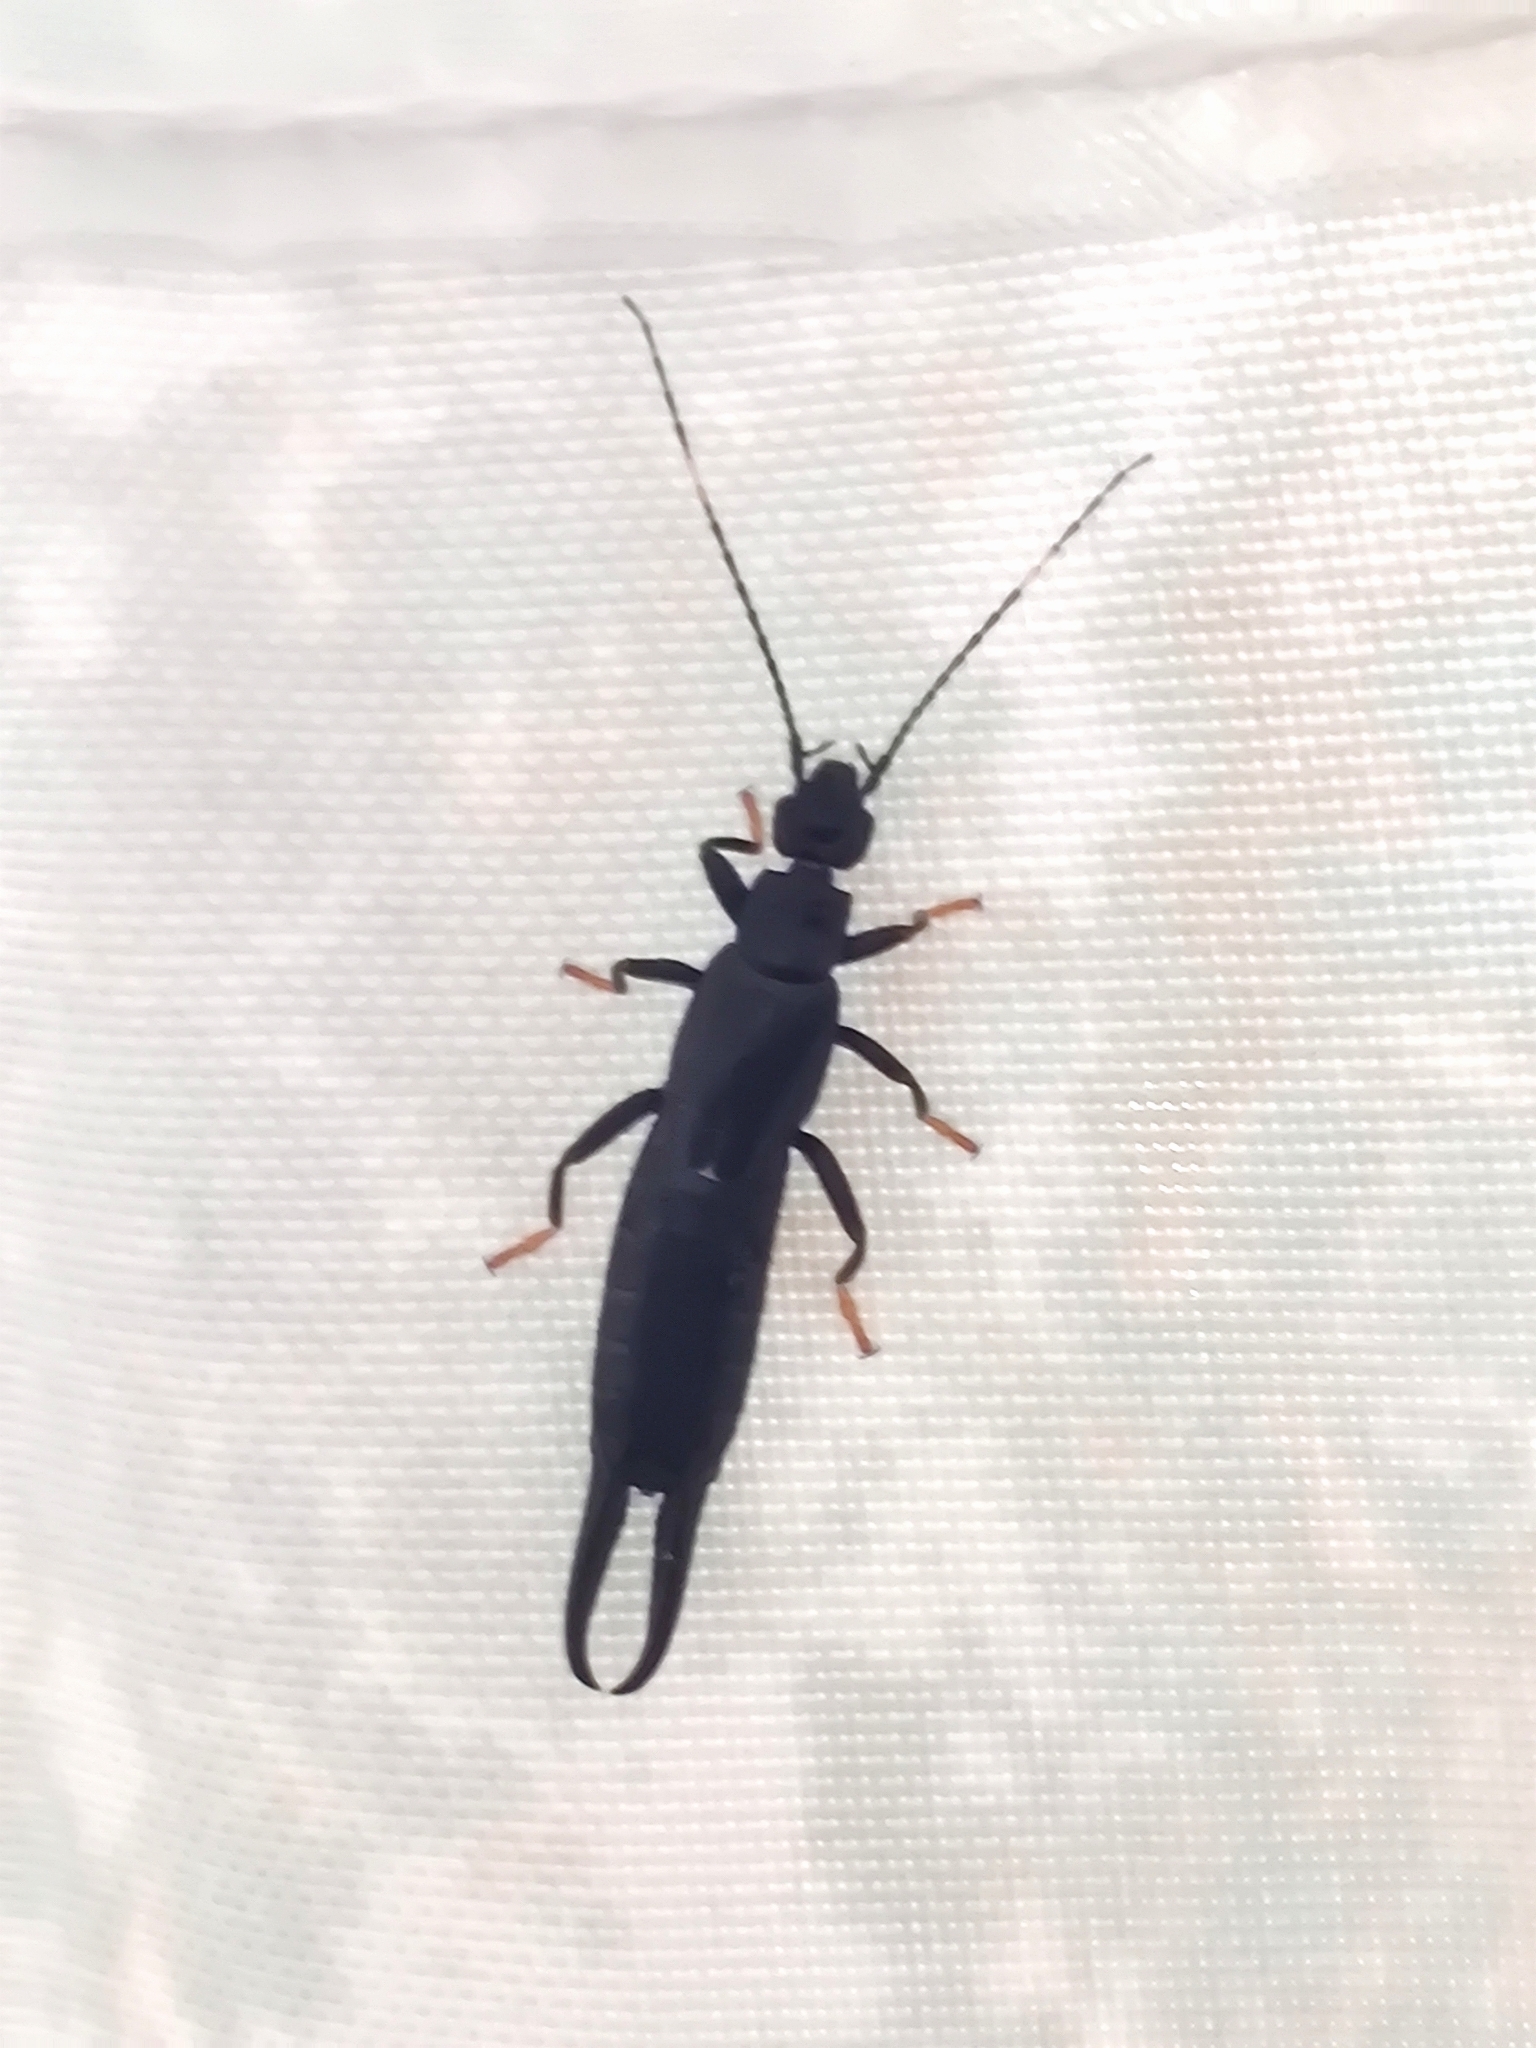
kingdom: Animalia
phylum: Arthropoda
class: Insecta
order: Dermaptera
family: Chelisochidae
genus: Chelisoches
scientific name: Chelisoches morio
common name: Black earwig
